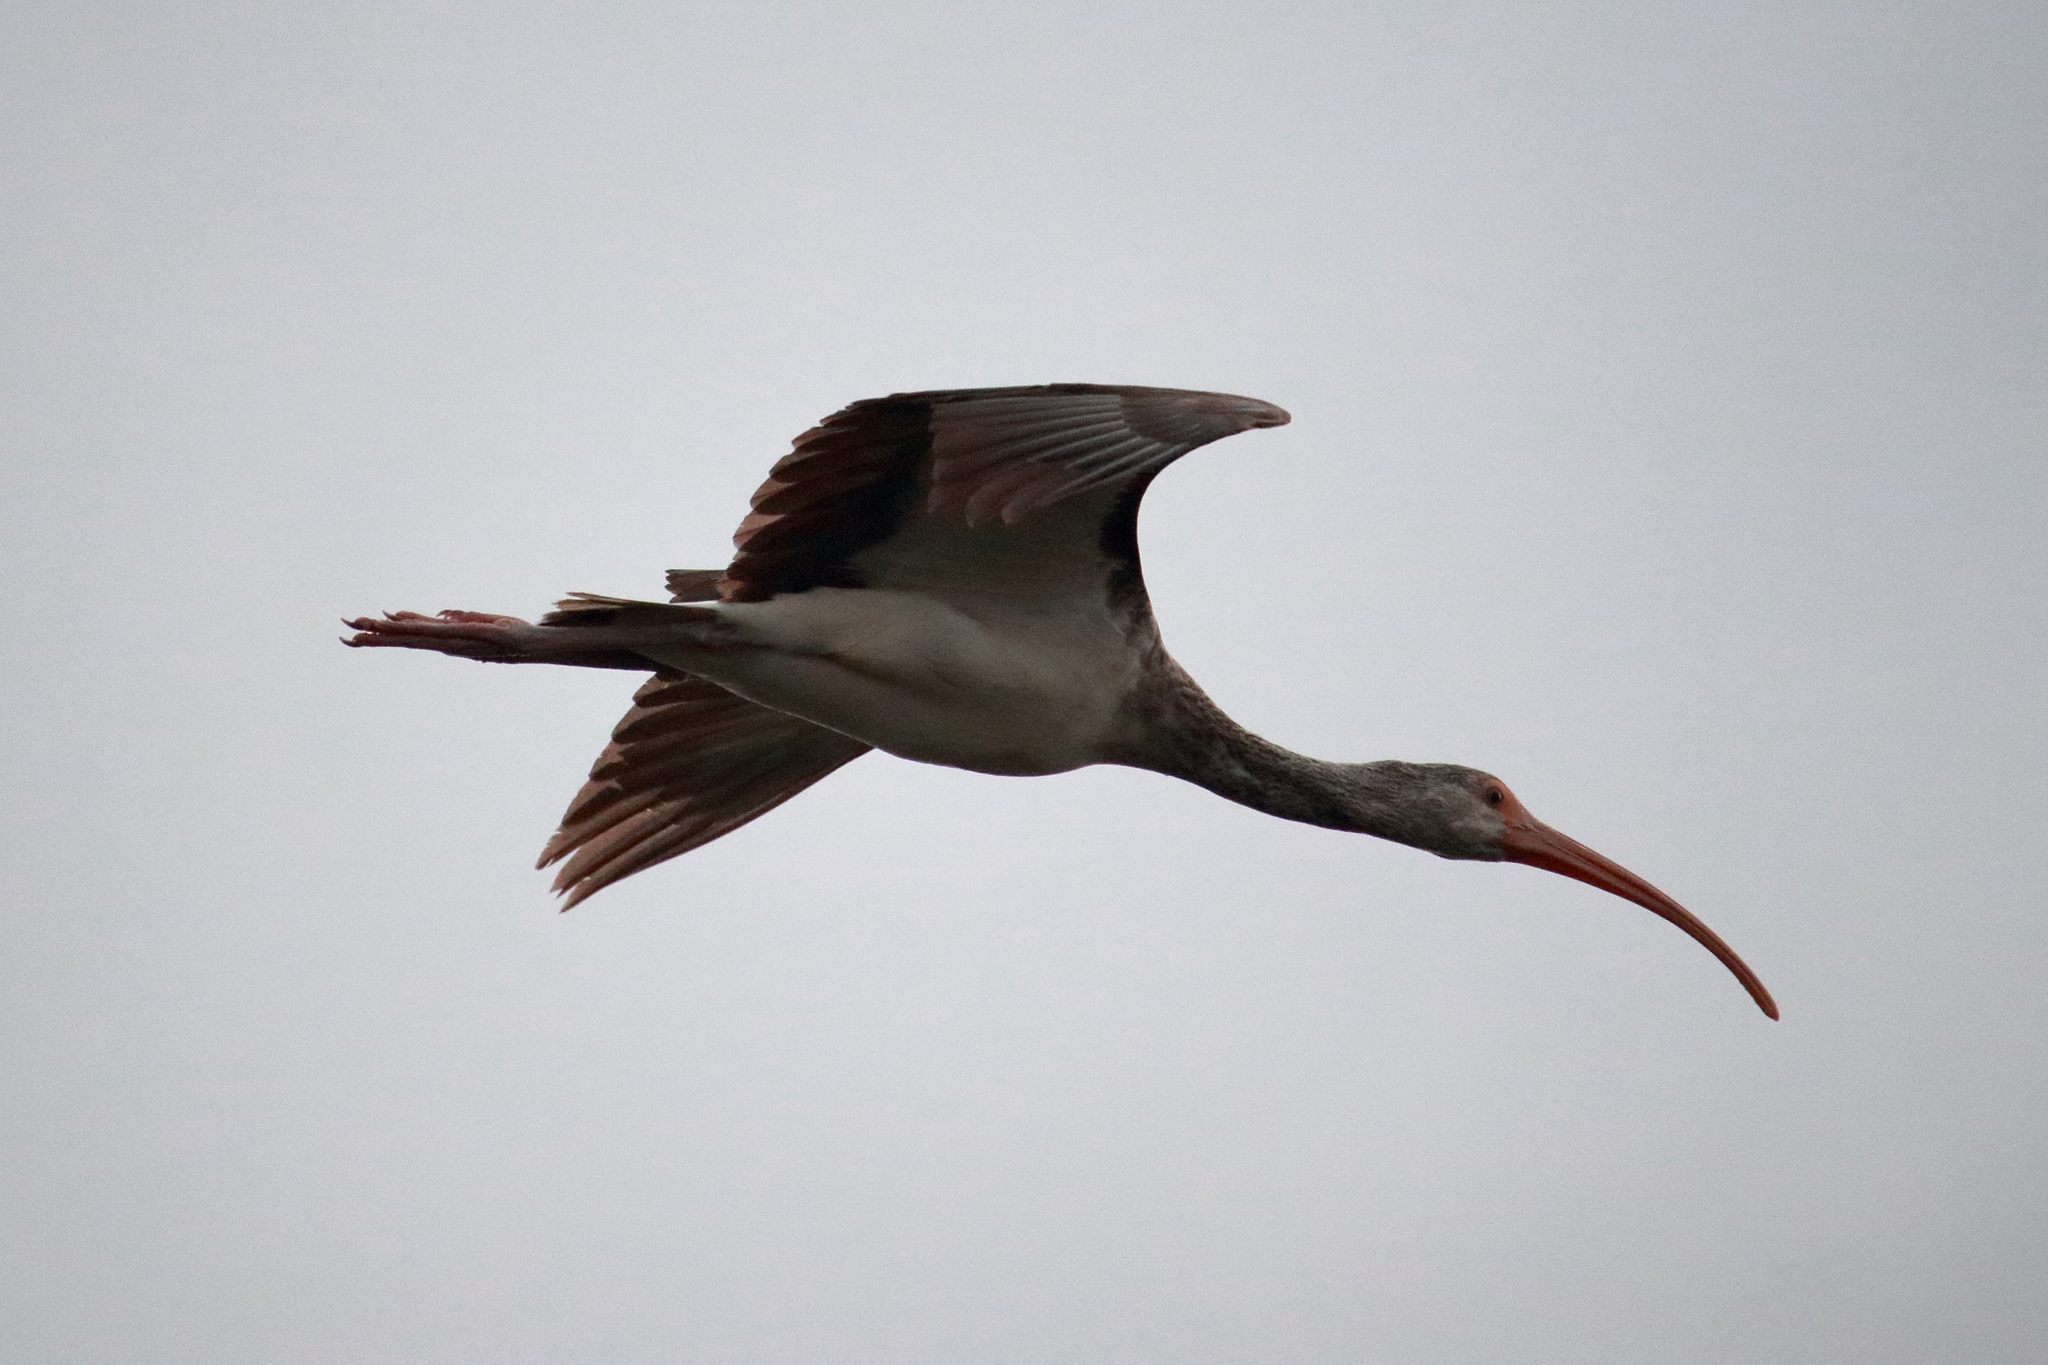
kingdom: Animalia
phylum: Chordata
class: Aves
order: Pelecaniformes
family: Threskiornithidae
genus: Eudocimus
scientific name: Eudocimus albus
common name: White ibis
